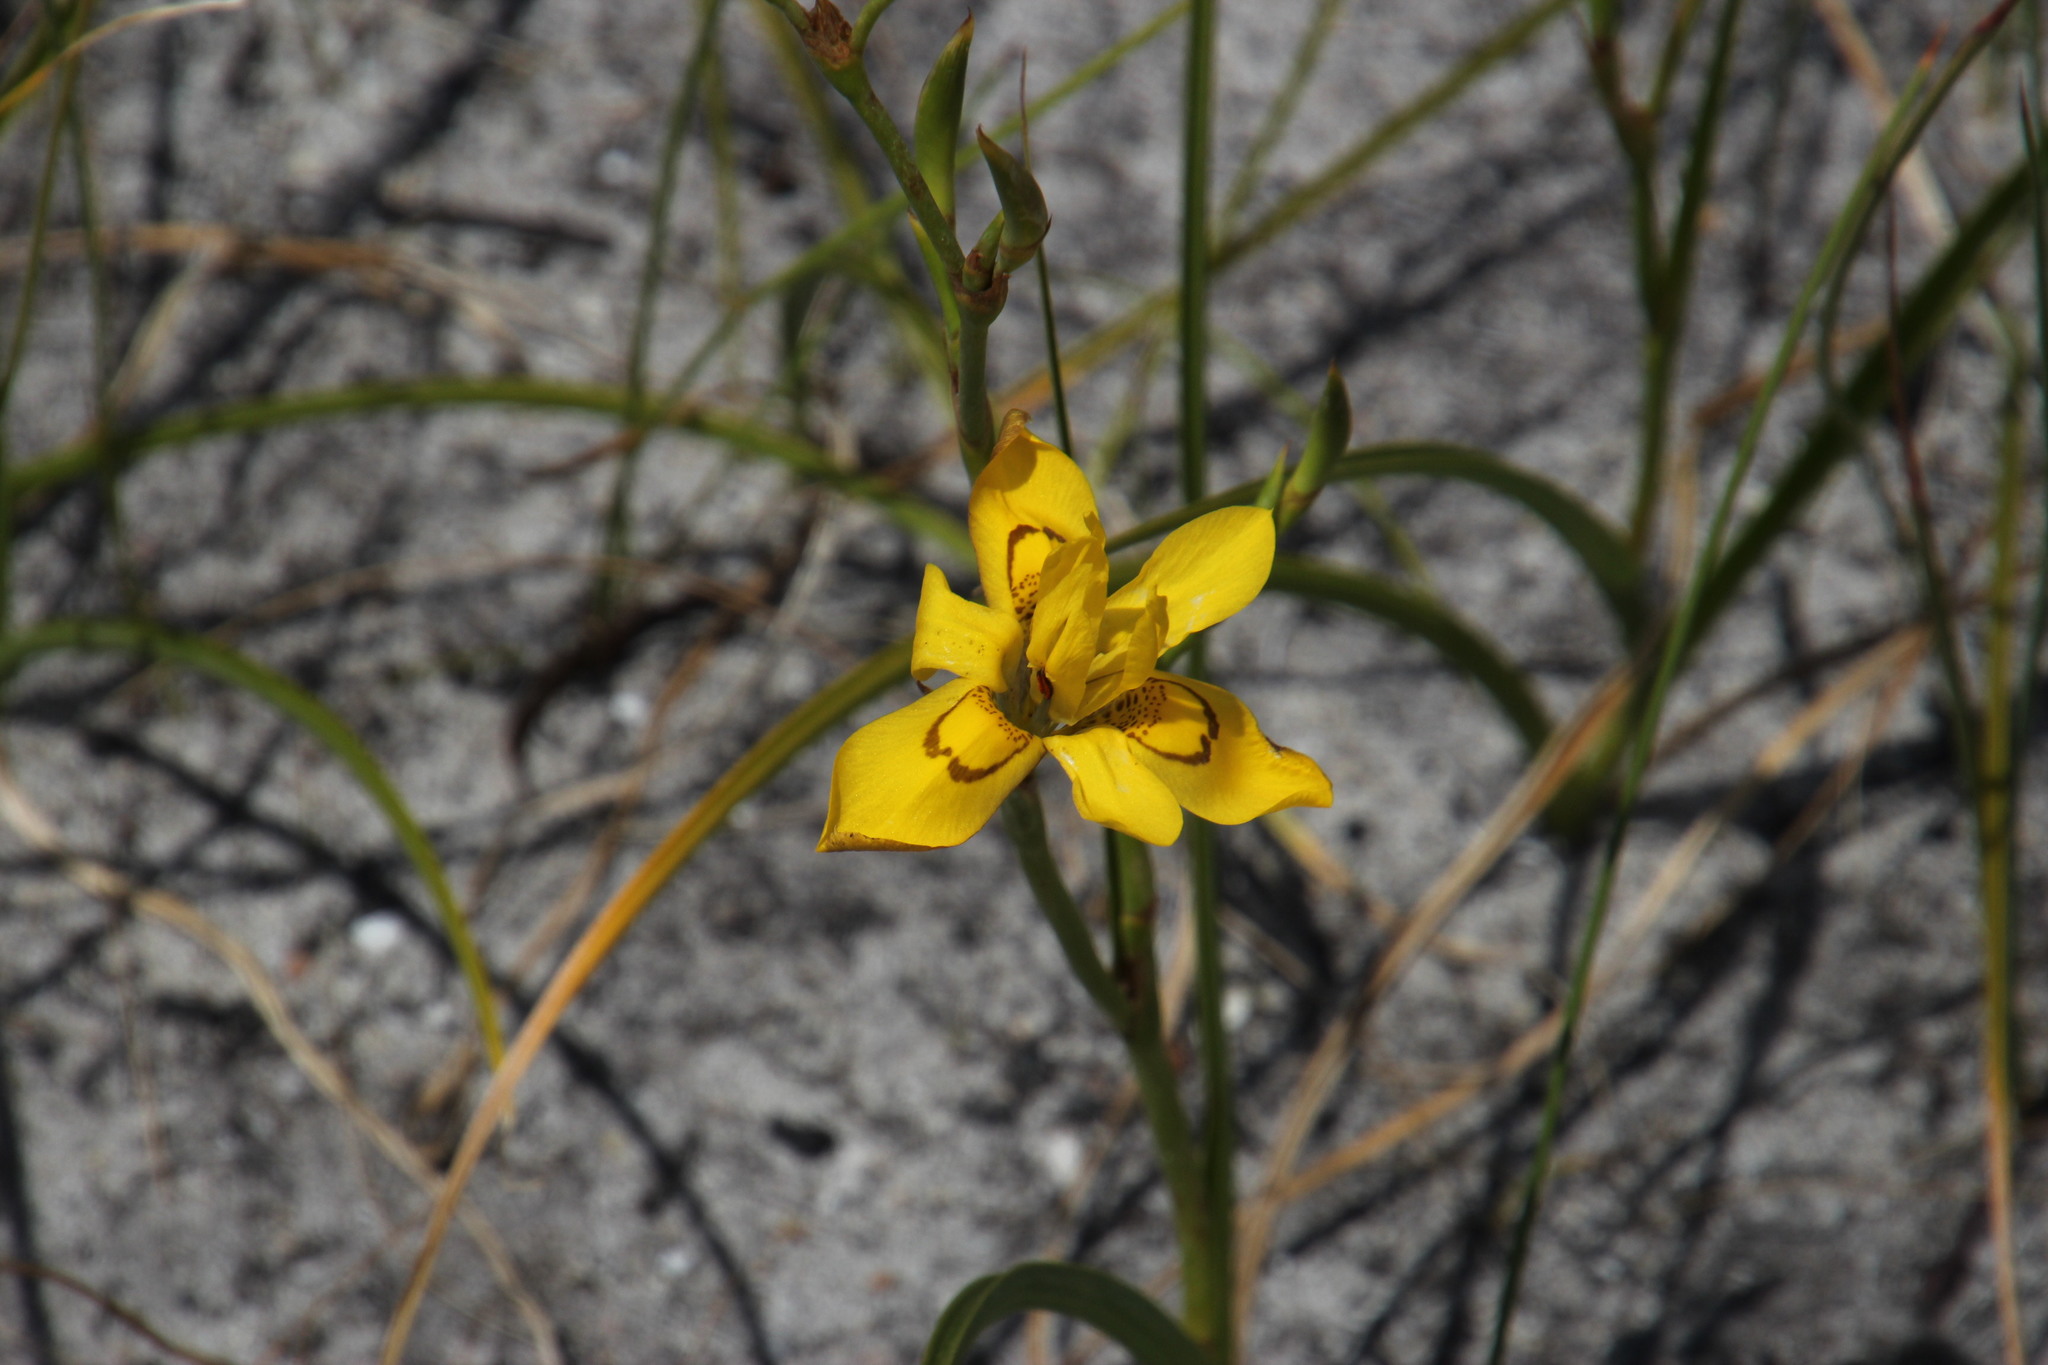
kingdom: Plantae
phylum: Tracheophyta
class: Liliopsida
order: Asparagales
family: Iridaceae
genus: Moraea
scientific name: Moraea ramosissima
